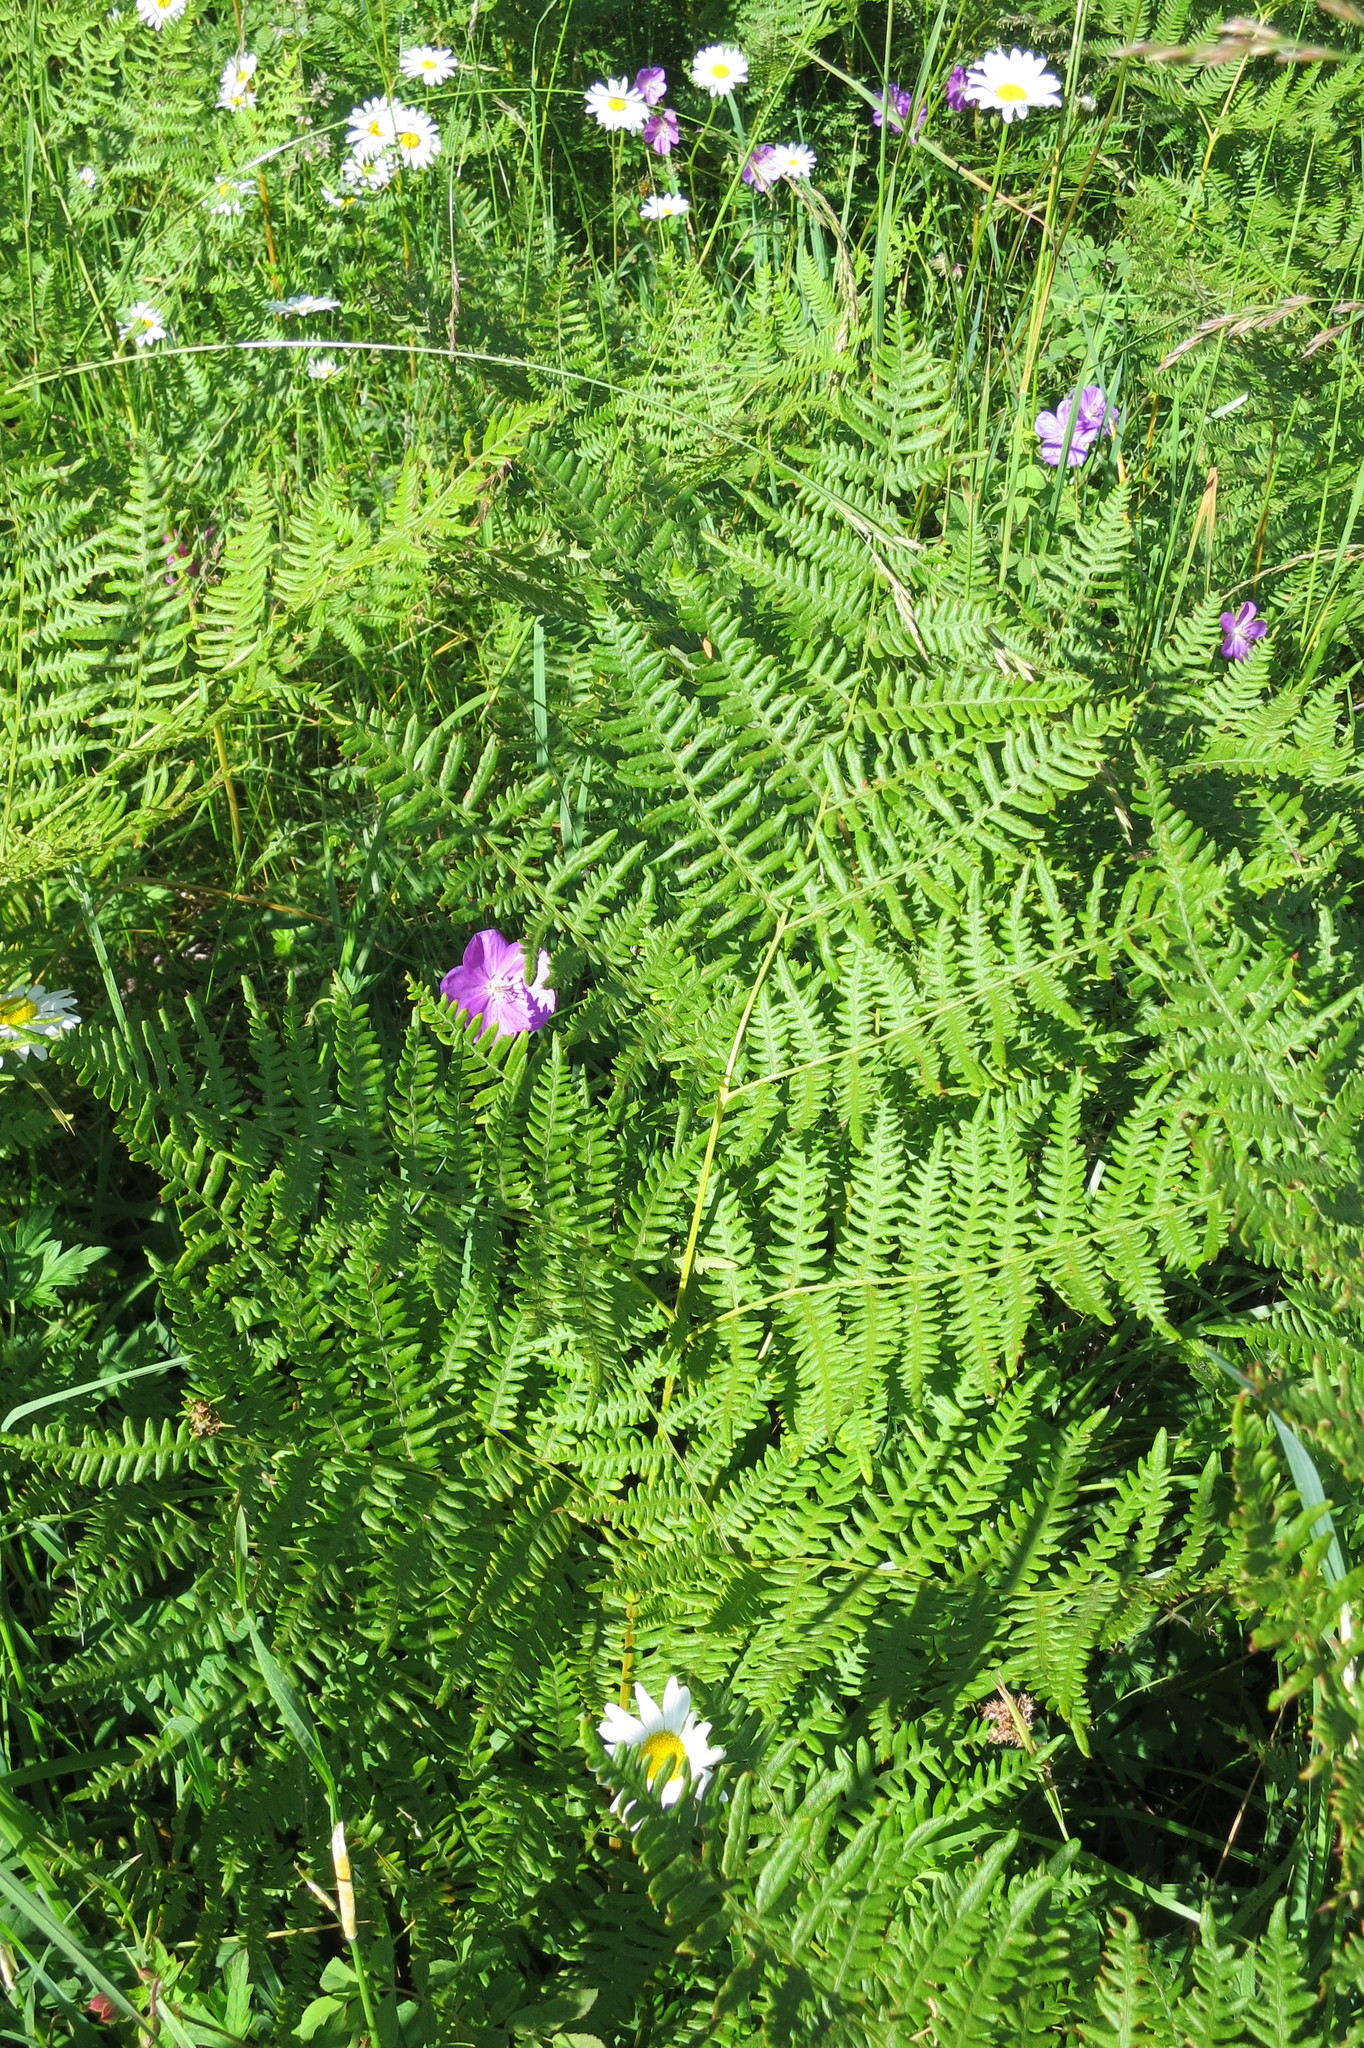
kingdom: Plantae
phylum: Tracheophyta
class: Polypodiopsida
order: Polypodiales
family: Dennstaedtiaceae
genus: Pteridium
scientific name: Pteridium aquilinum
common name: Bracken
